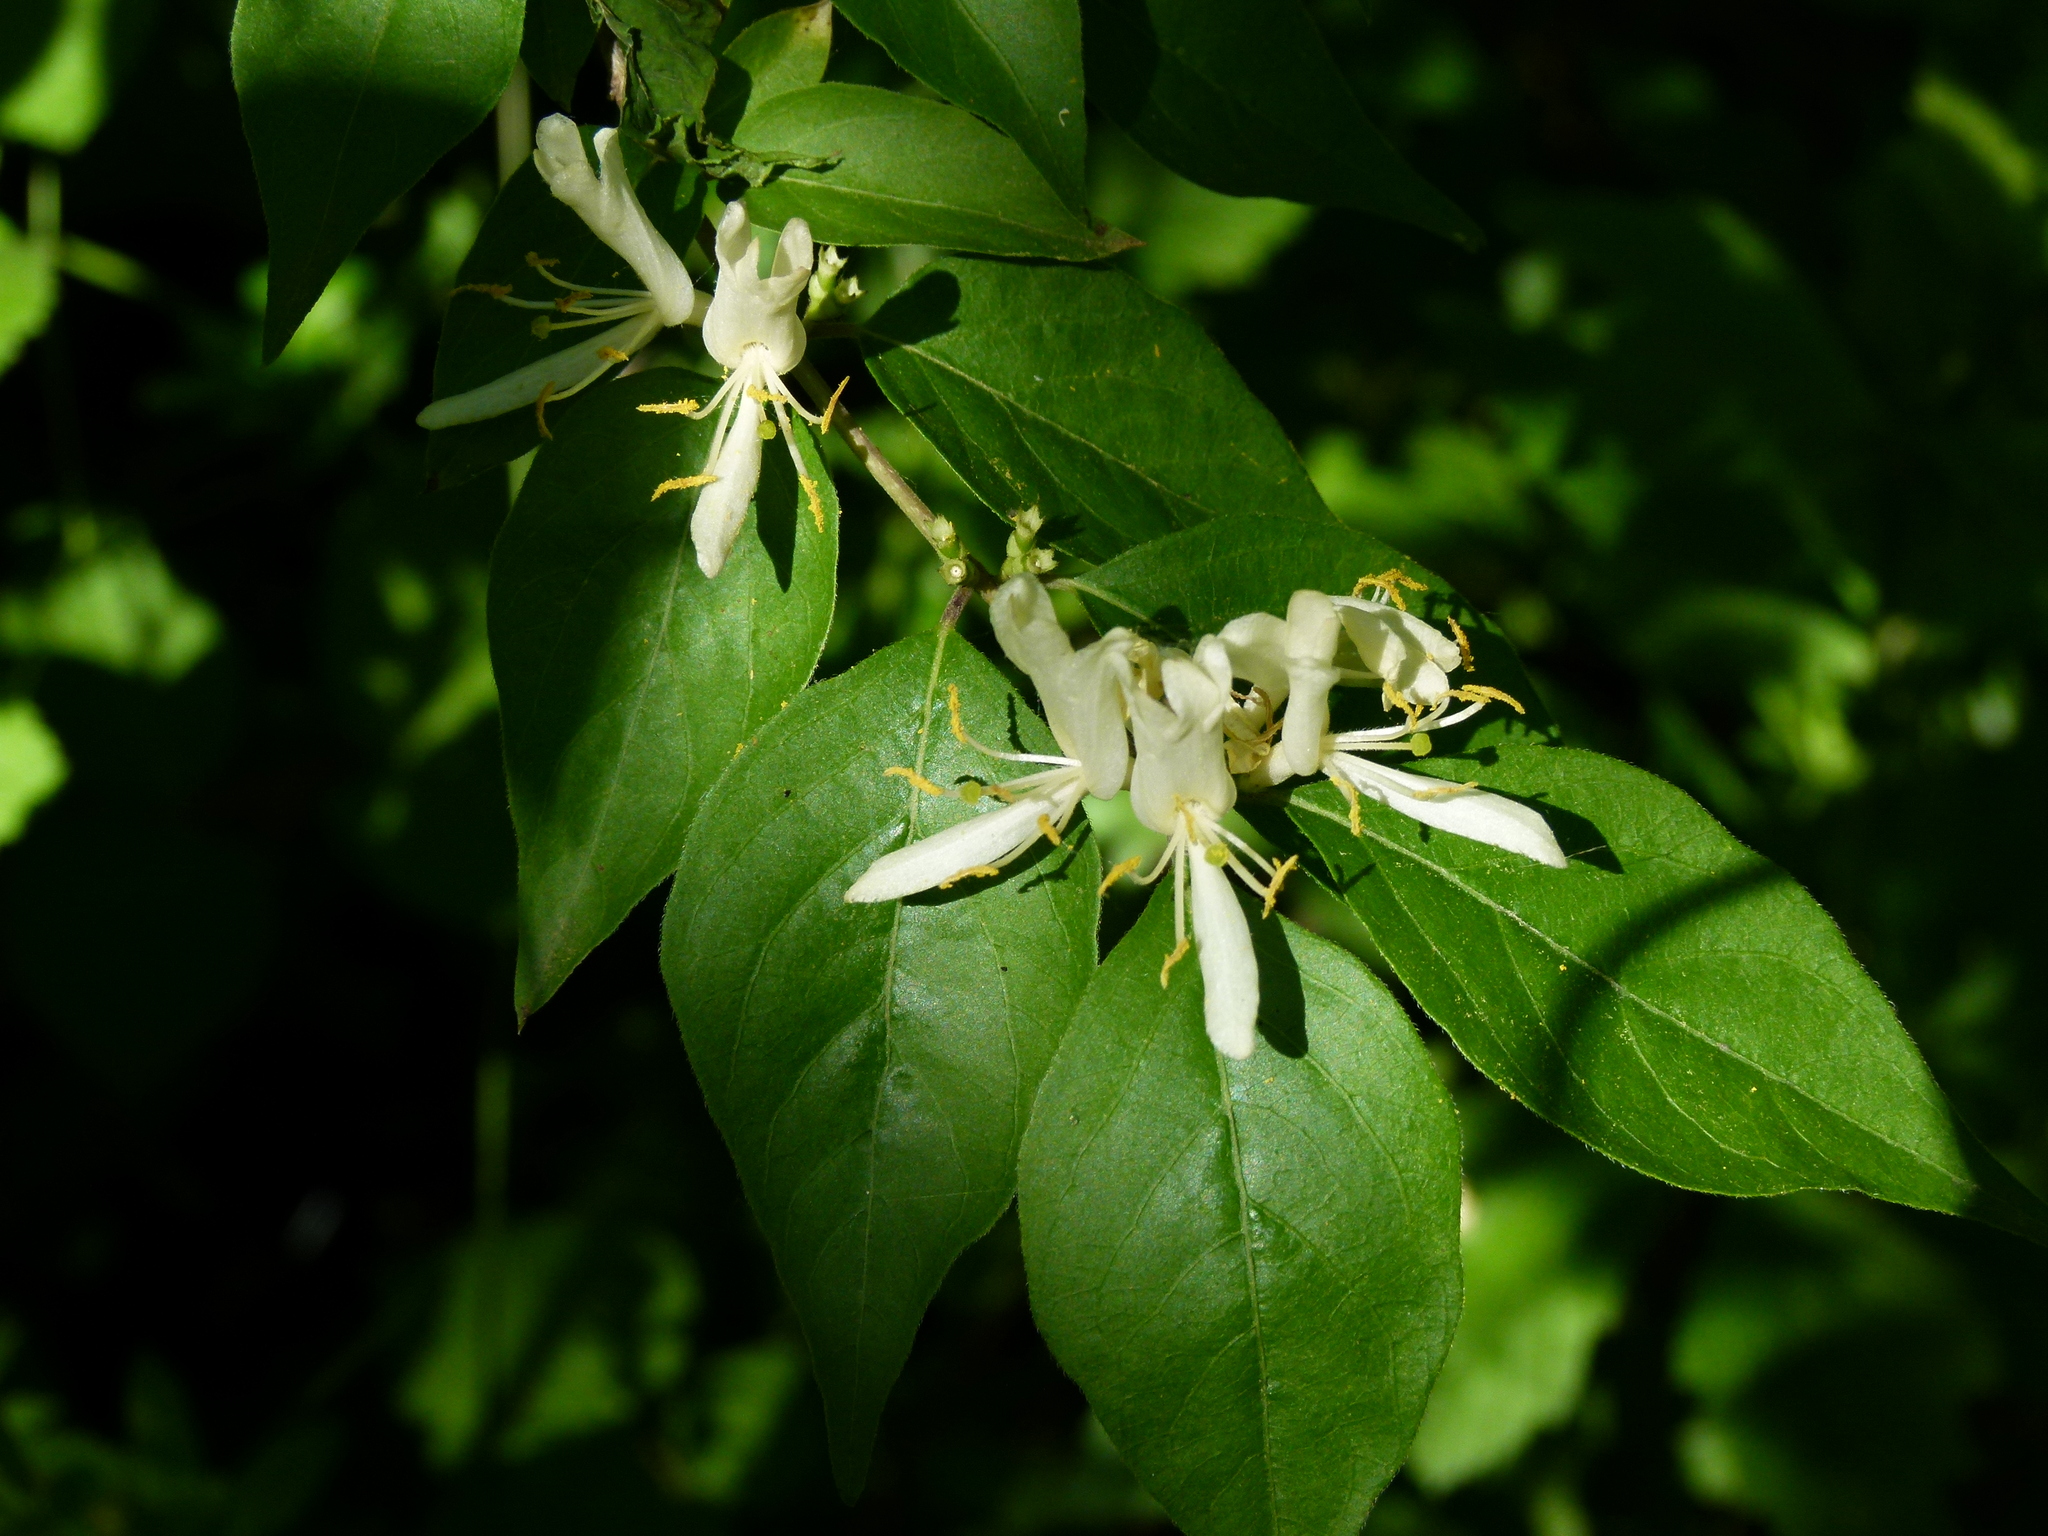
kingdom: Plantae
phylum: Tracheophyta
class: Magnoliopsida
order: Dipsacales
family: Caprifoliaceae
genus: Lonicera
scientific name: Lonicera maackii
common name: Amur honeysuckle
